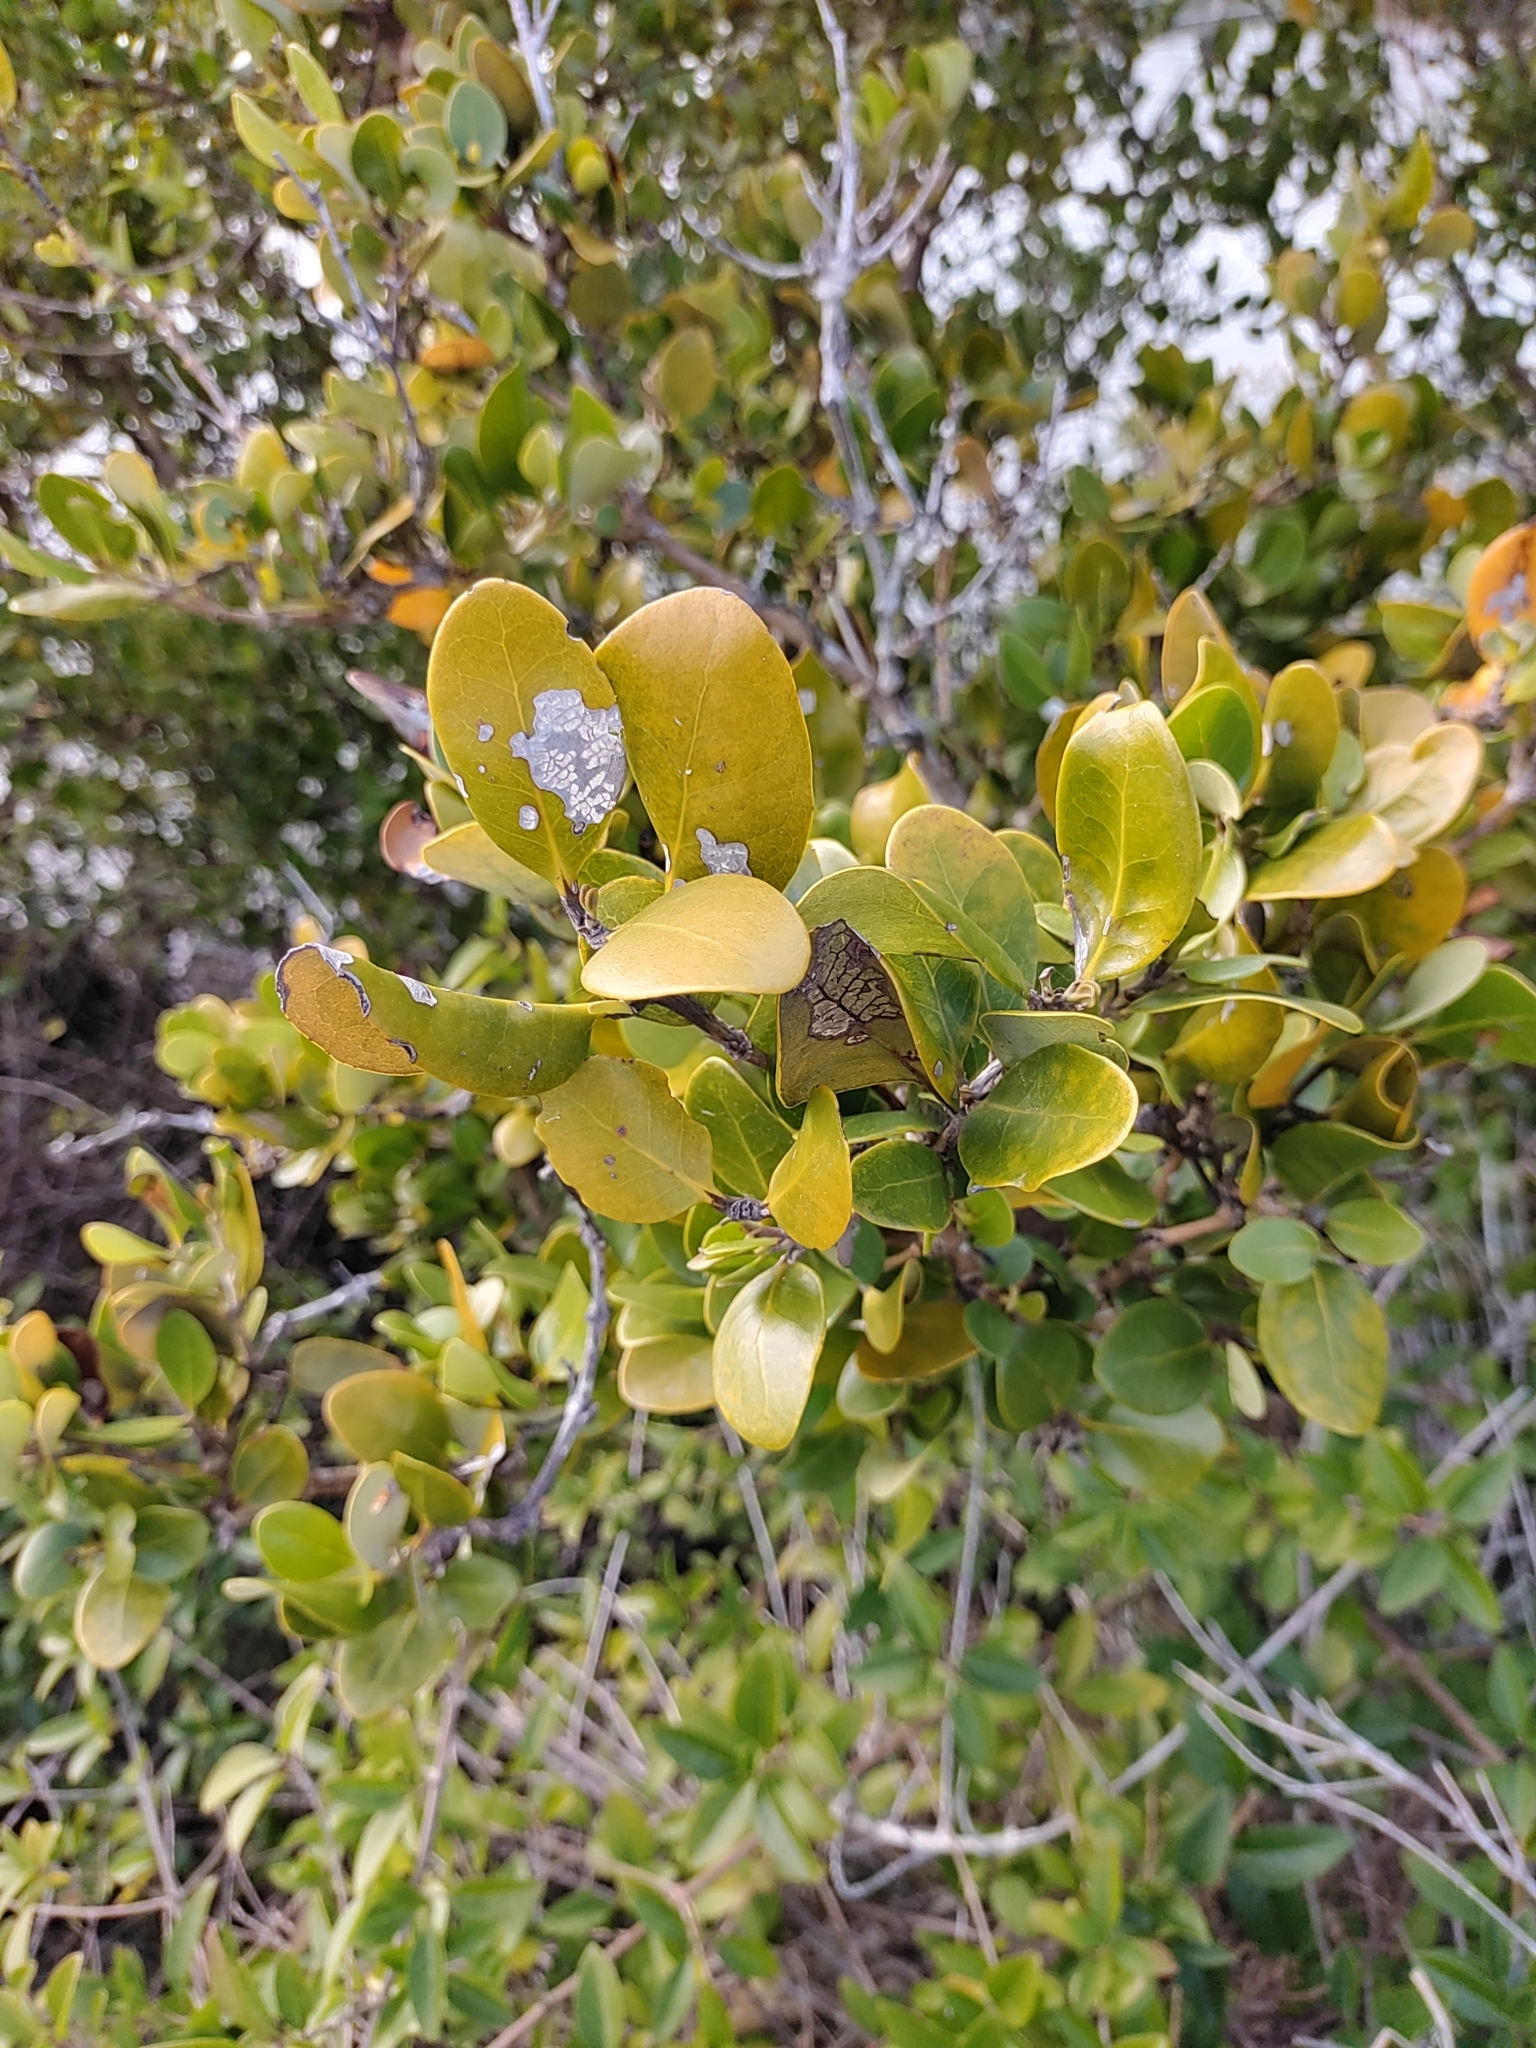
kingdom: Plantae
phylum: Tracheophyta
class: Magnoliopsida
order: Lamiales
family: Acanthaceae
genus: Avicennia
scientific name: Avicennia marina
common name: Gray mangrove
